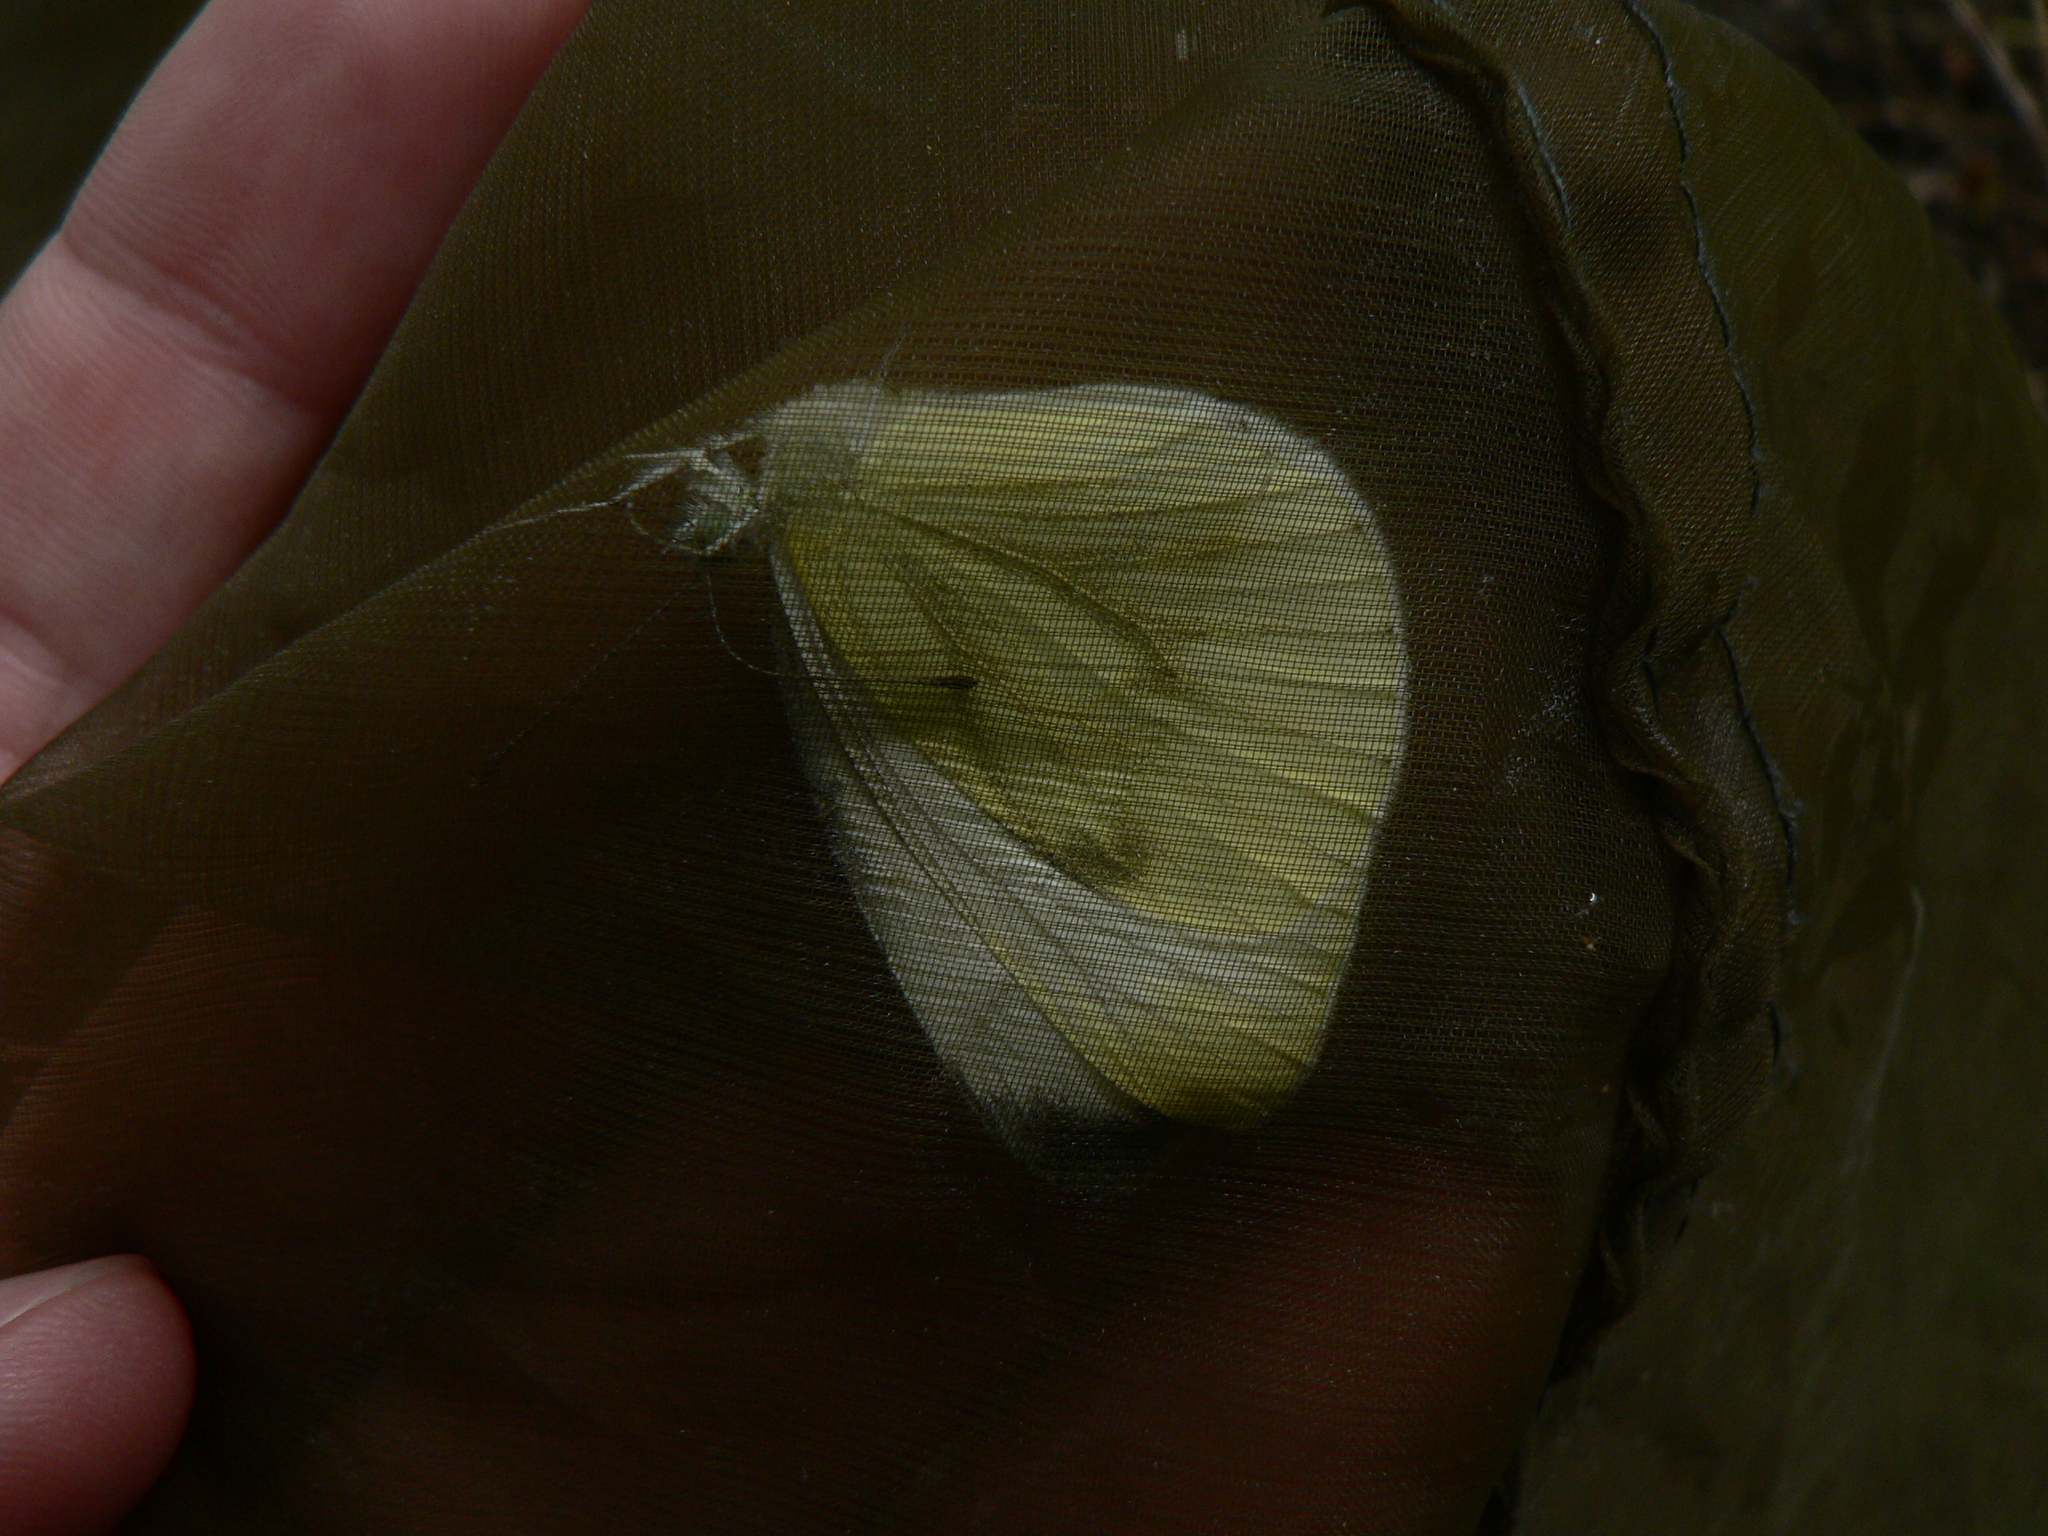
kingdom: Animalia
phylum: Arthropoda
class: Insecta
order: Lepidoptera
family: Pieridae
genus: Pieris
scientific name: Pieris napi
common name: Green-veined white
